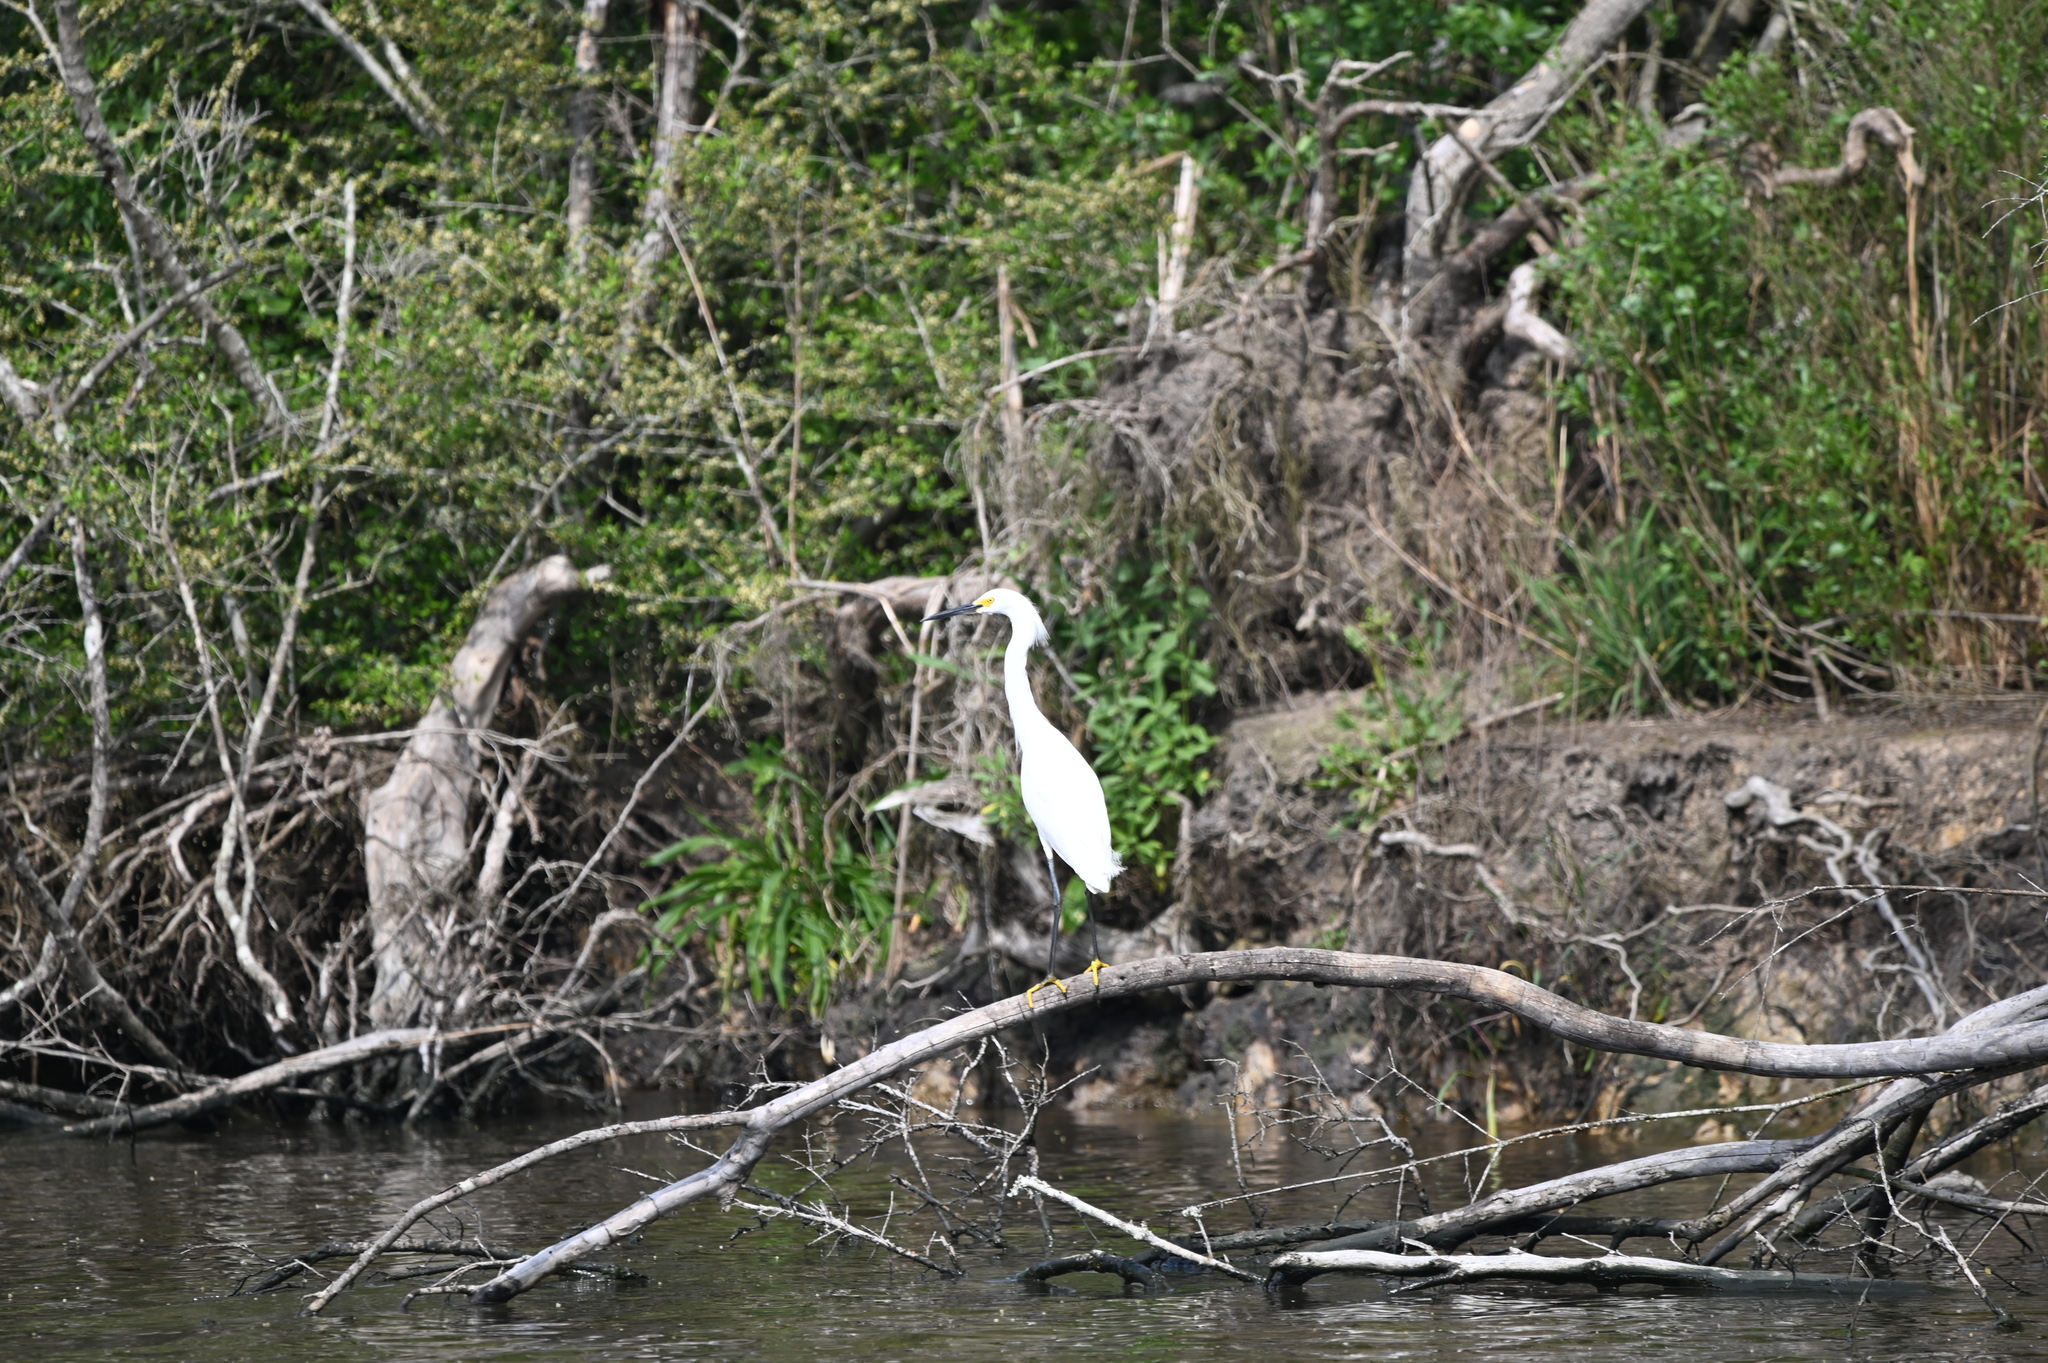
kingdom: Animalia
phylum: Chordata
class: Aves
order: Pelecaniformes
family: Ardeidae
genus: Egretta
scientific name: Egretta thula
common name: Snowy egret
